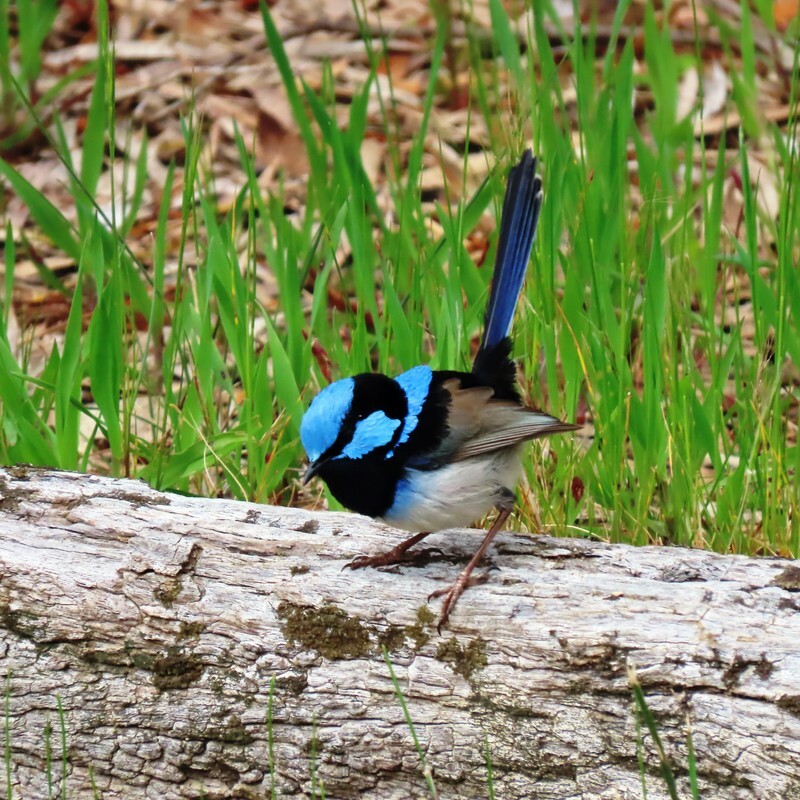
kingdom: Animalia
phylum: Chordata
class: Aves
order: Passeriformes
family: Maluridae
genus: Malurus
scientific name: Malurus cyaneus
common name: Superb fairywren
